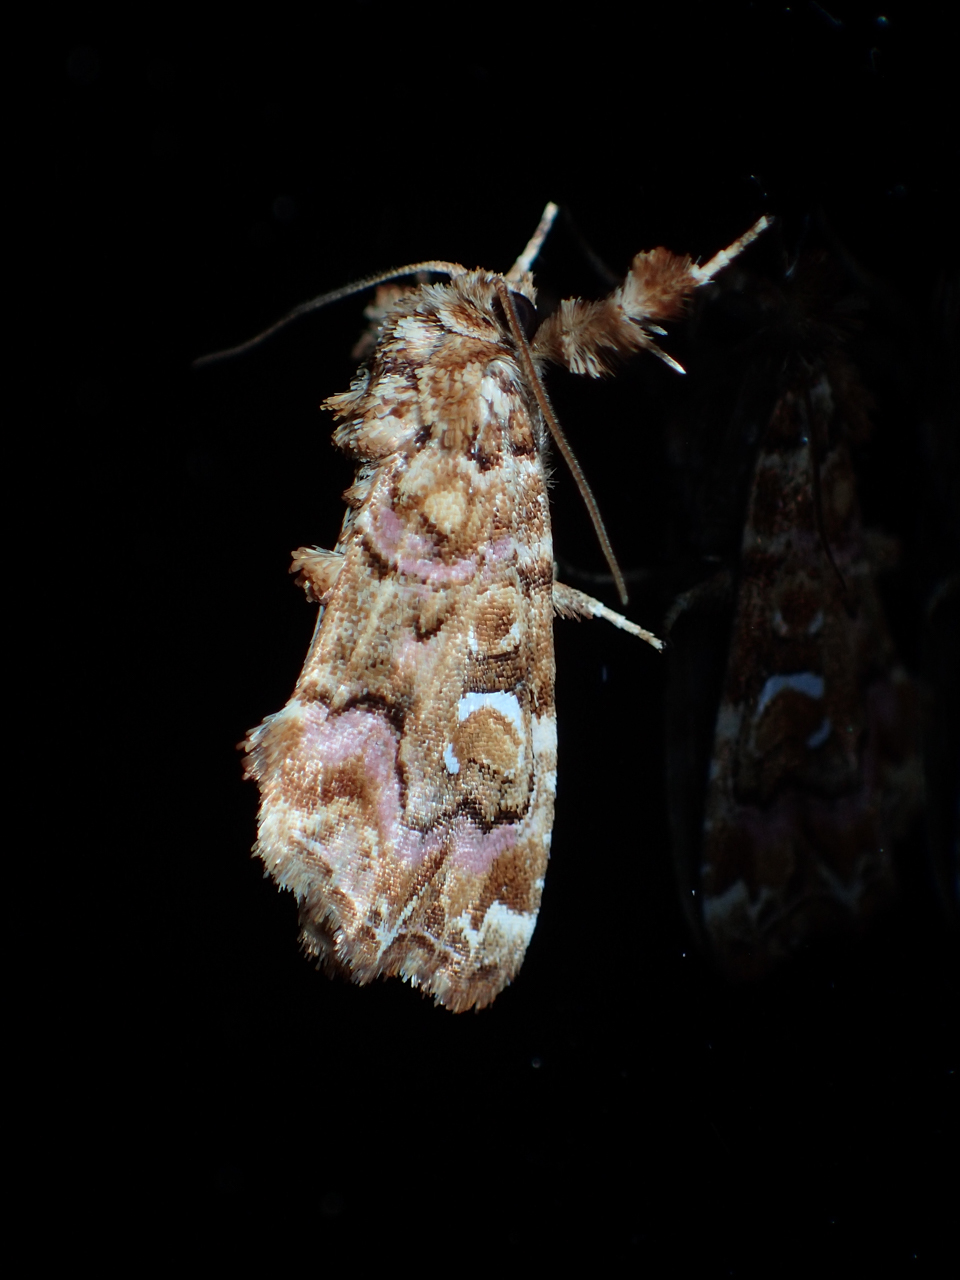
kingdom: Animalia
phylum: Arthropoda
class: Insecta
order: Lepidoptera
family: Noctuidae
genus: Callopistria
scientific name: Callopistria mollissima
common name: Pink-shaded fern moth
